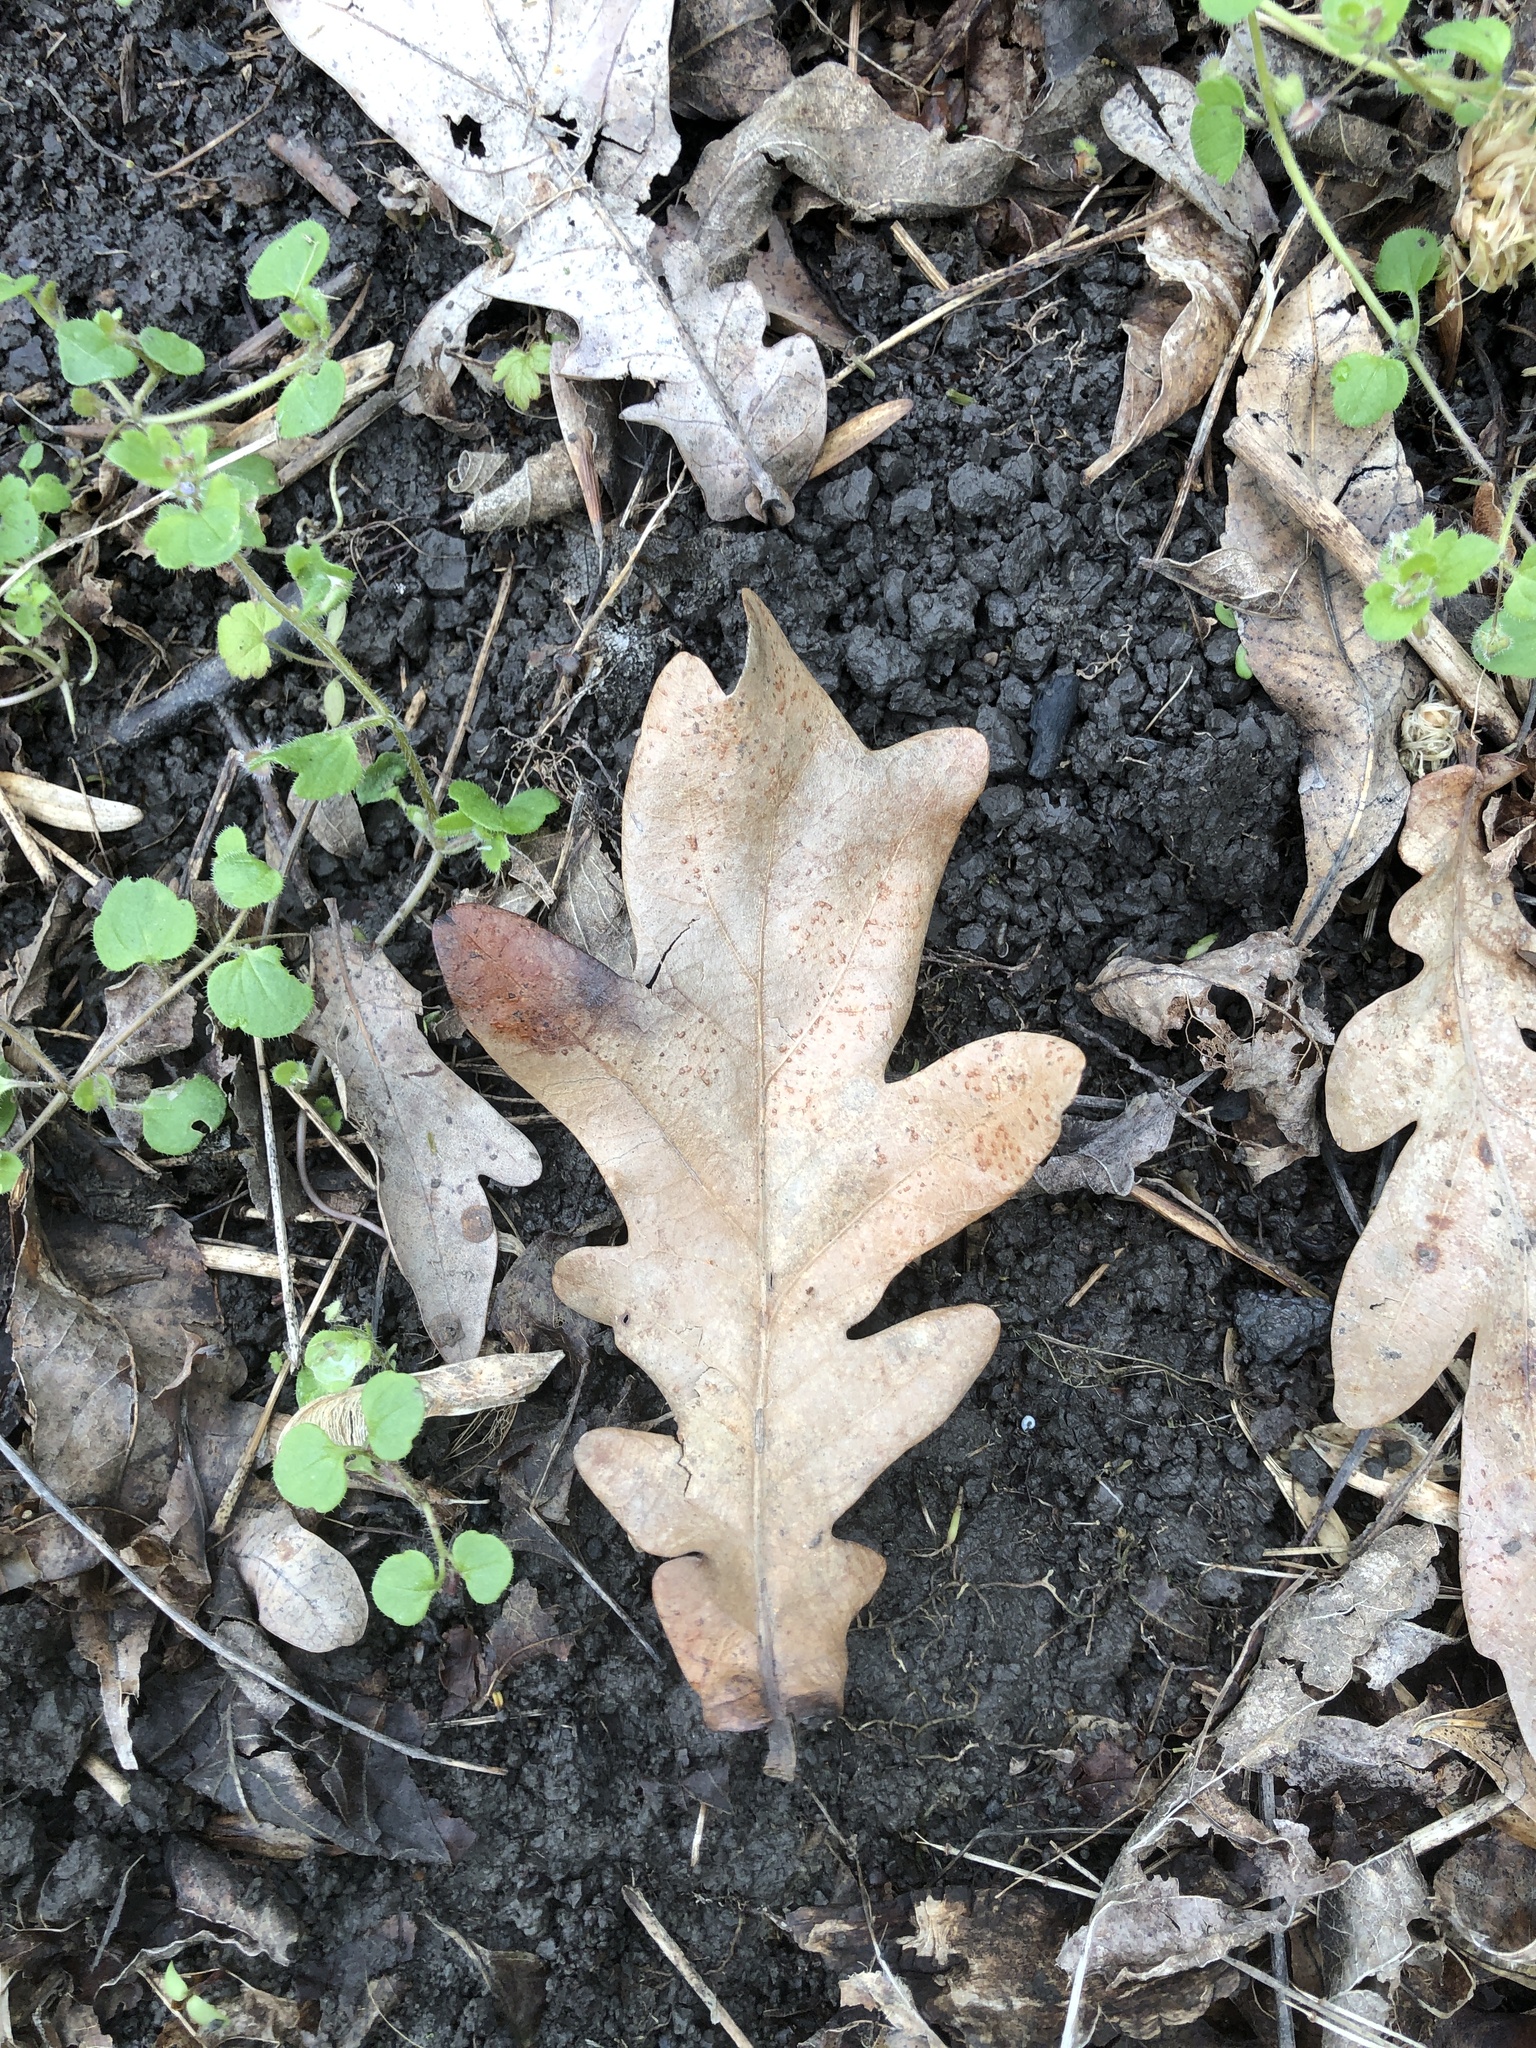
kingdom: Plantae
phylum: Tracheophyta
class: Magnoliopsida
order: Fagales
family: Fagaceae
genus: Quercus
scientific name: Quercus robur
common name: Pedunculate oak
